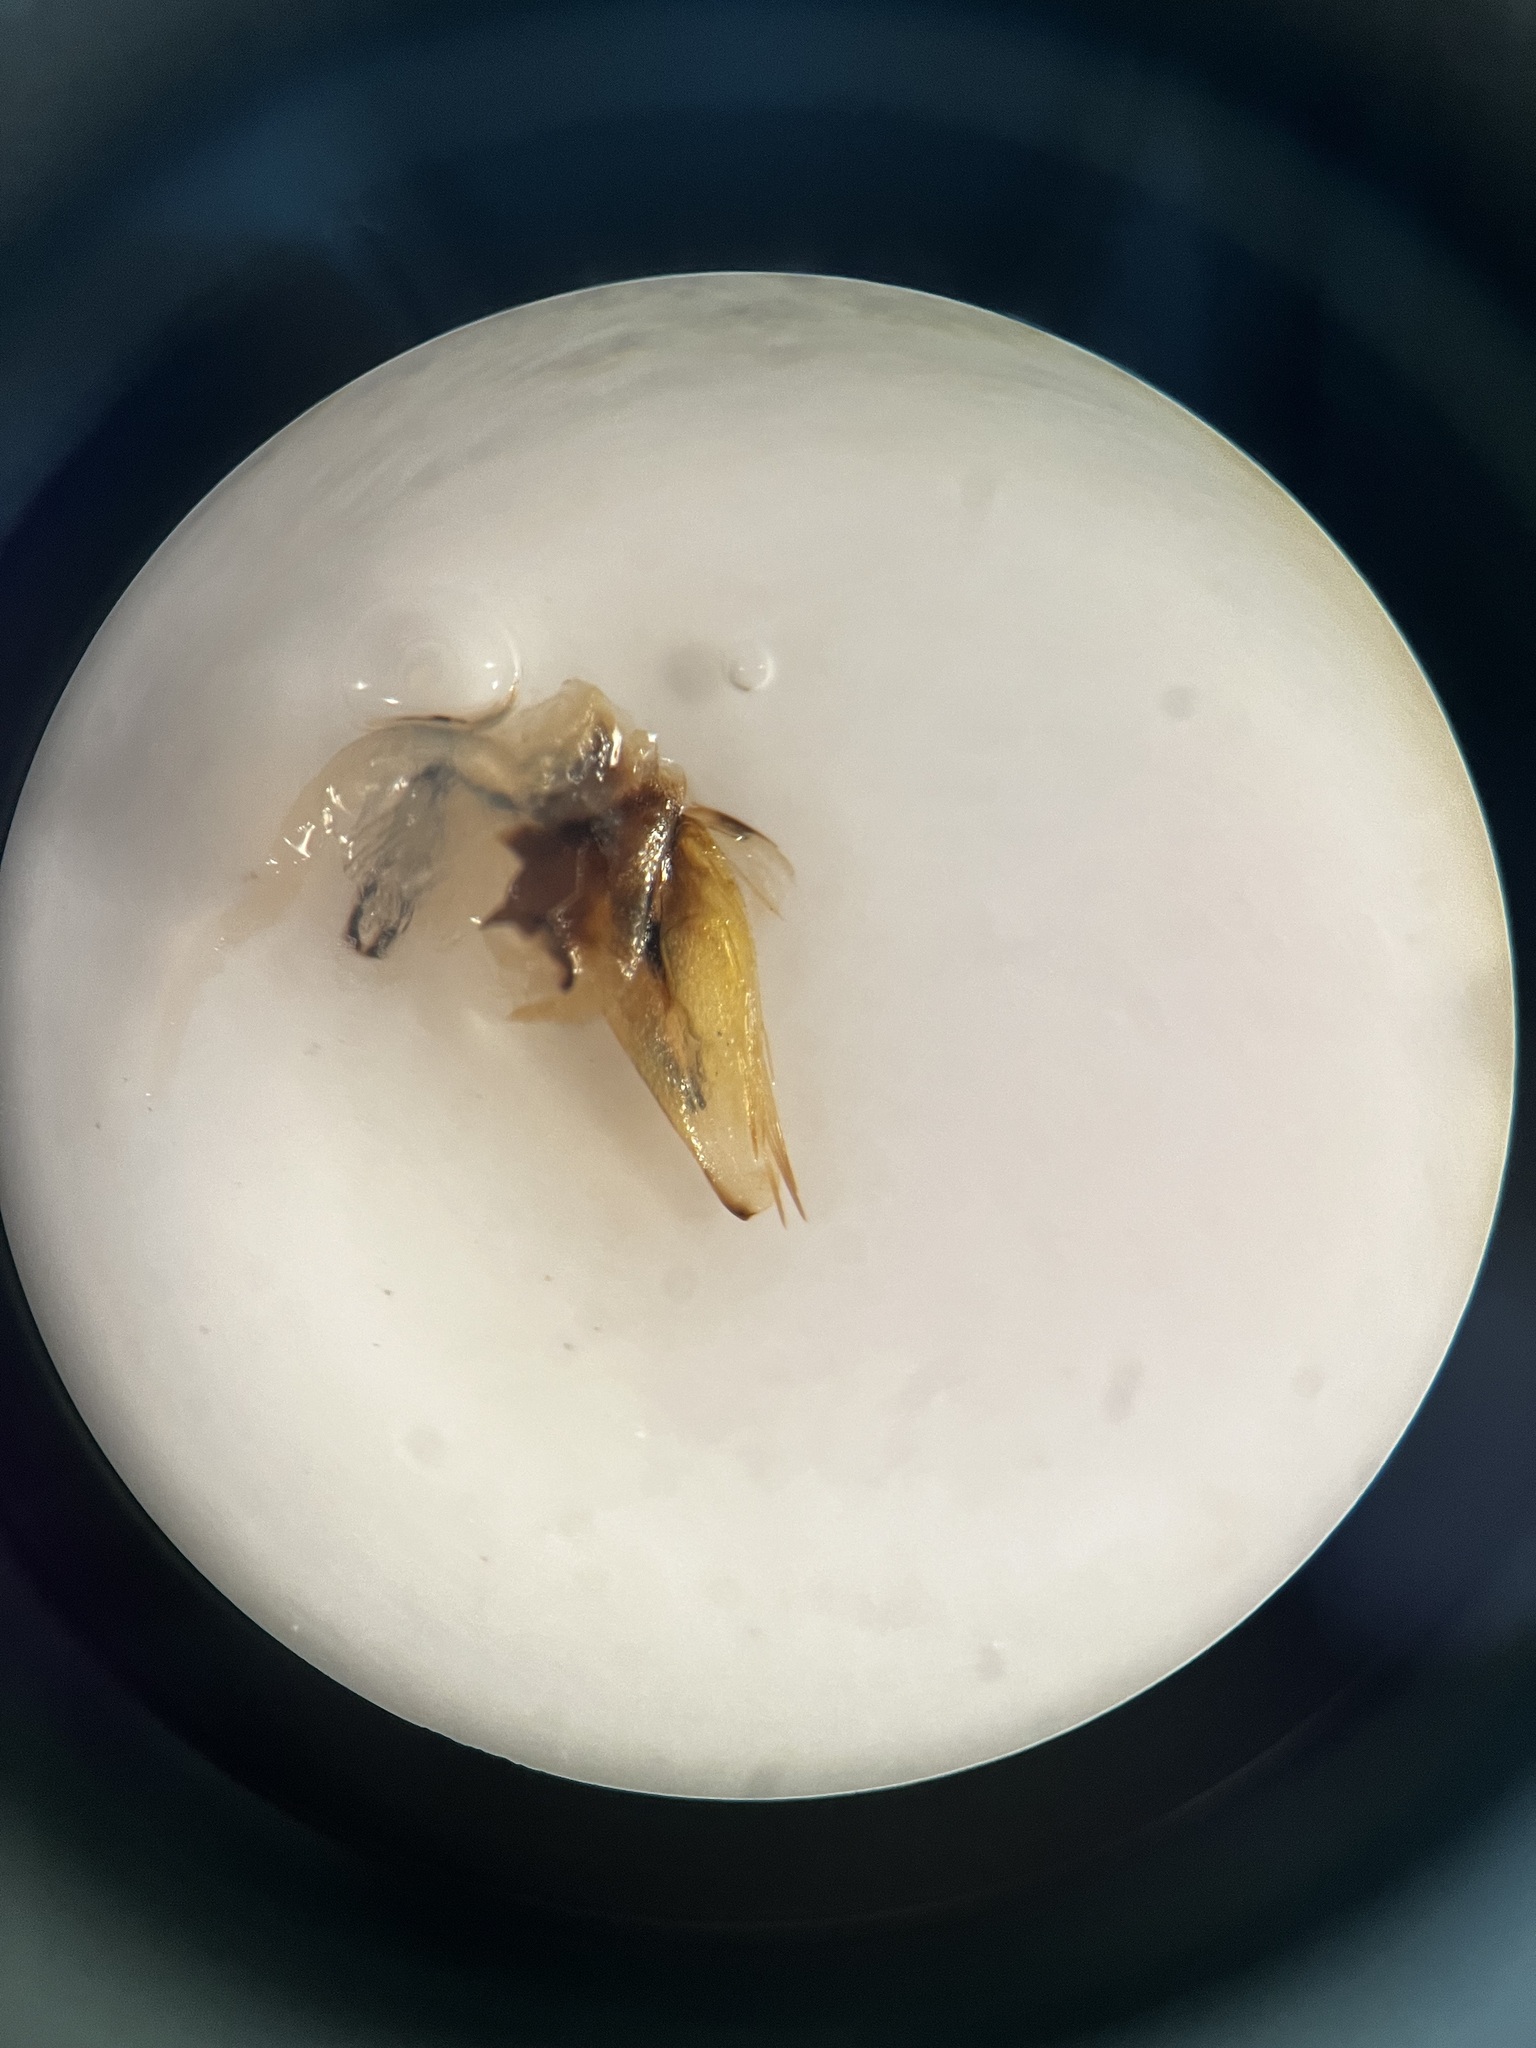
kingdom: Animalia
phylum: Arthropoda
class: Insecta
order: Hemiptera
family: Cicadellidae
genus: Arthaldeus
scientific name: Arthaldeus pascuellus
